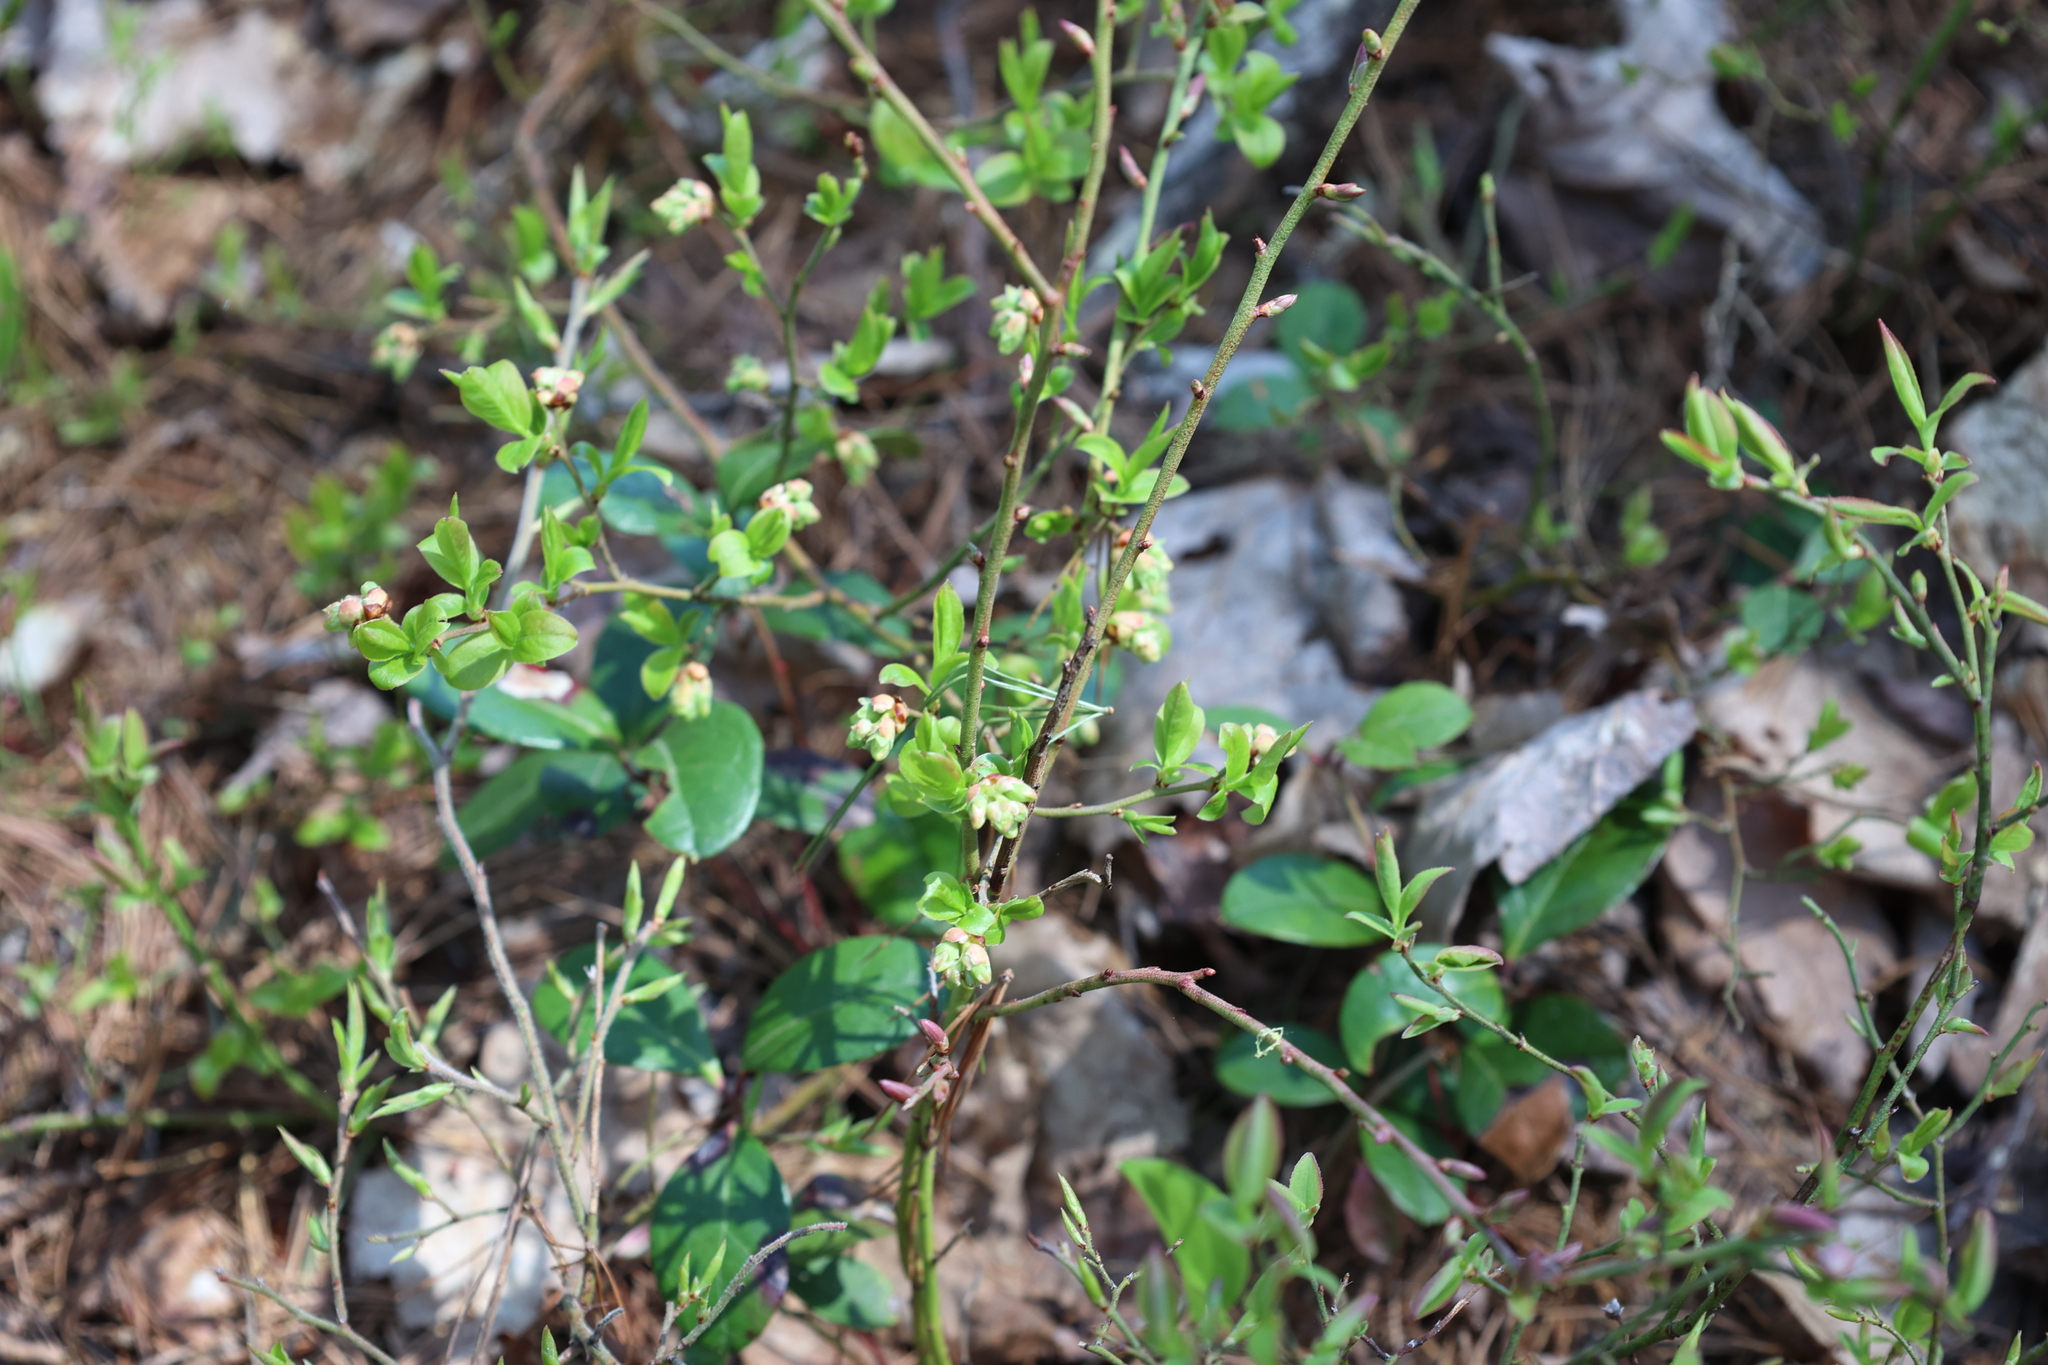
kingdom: Plantae
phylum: Tracheophyta
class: Magnoliopsida
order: Ericales
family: Ericaceae
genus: Vaccinium
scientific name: Vaccinium angustifolium
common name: Early lowbush blueberry
